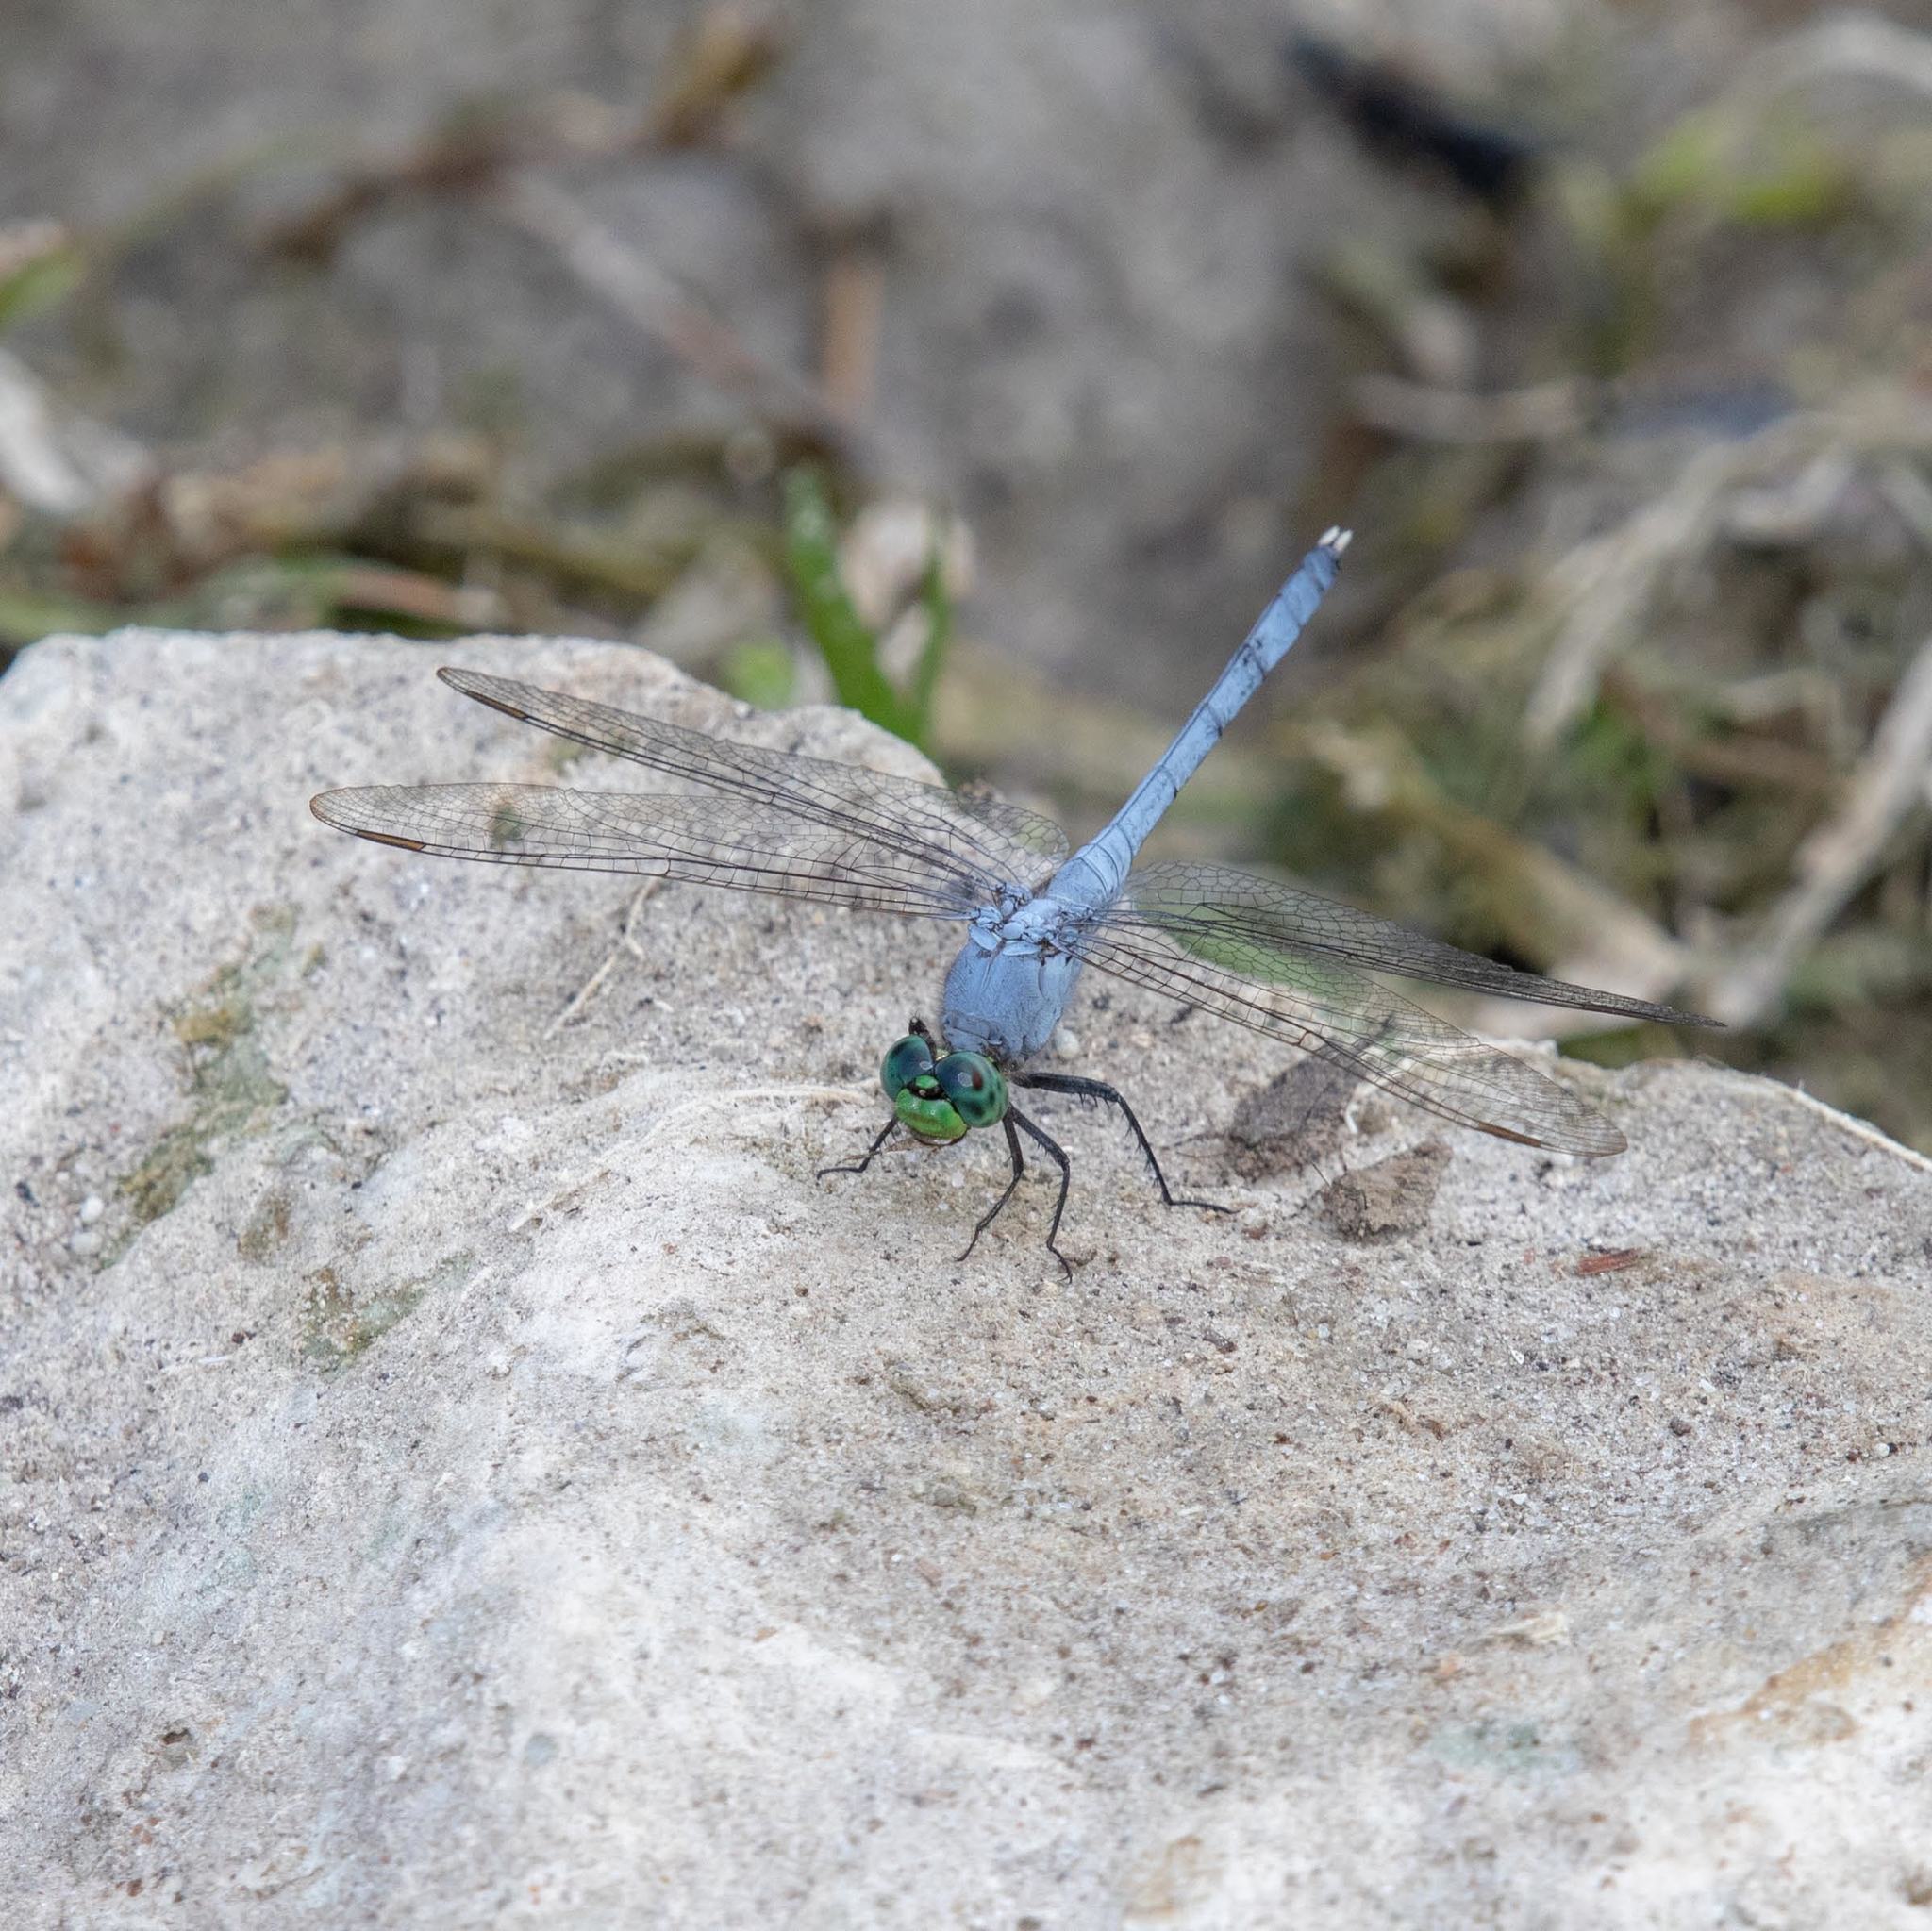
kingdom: Animalia
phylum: Arthropoda
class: Insecta
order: Odonata
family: Libellulidae
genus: Erythemis
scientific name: Erythemis simplicicollis
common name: Eastern pondhawk
